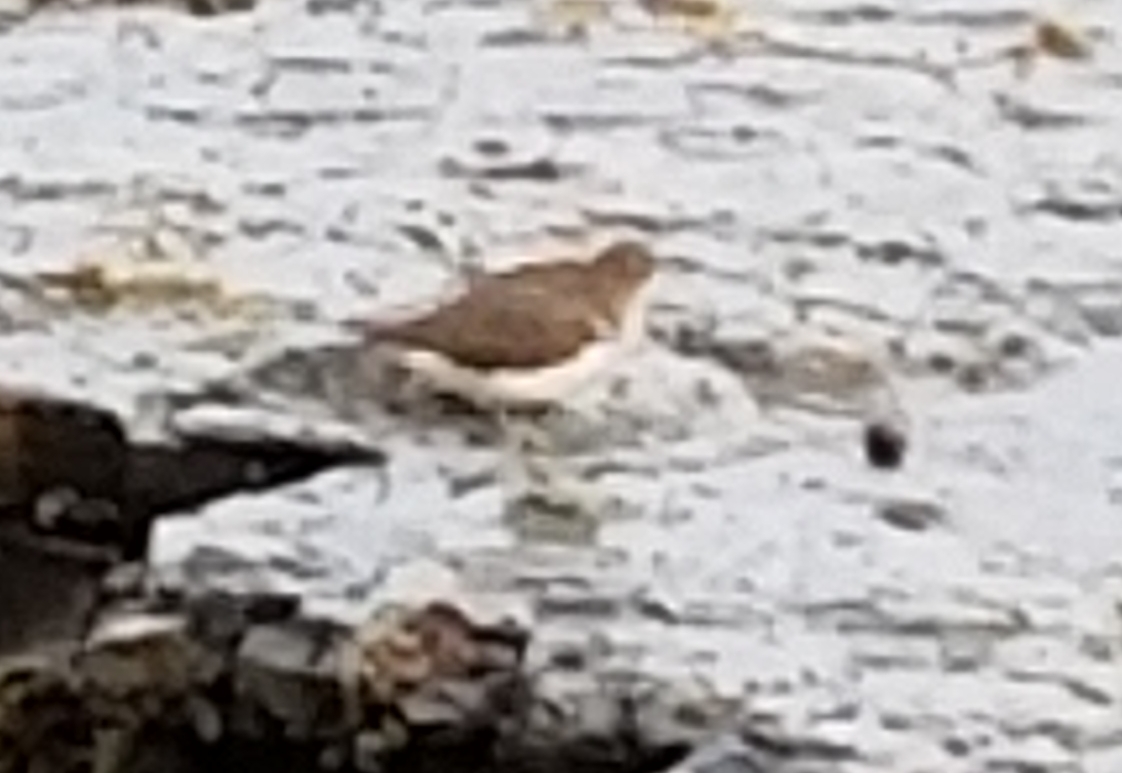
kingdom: Animalia
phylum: Chordata
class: Aves
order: Charadriiformes
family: Scolopacidae
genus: Actitis
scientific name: Actitis macularius
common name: Spotted sandpiper
